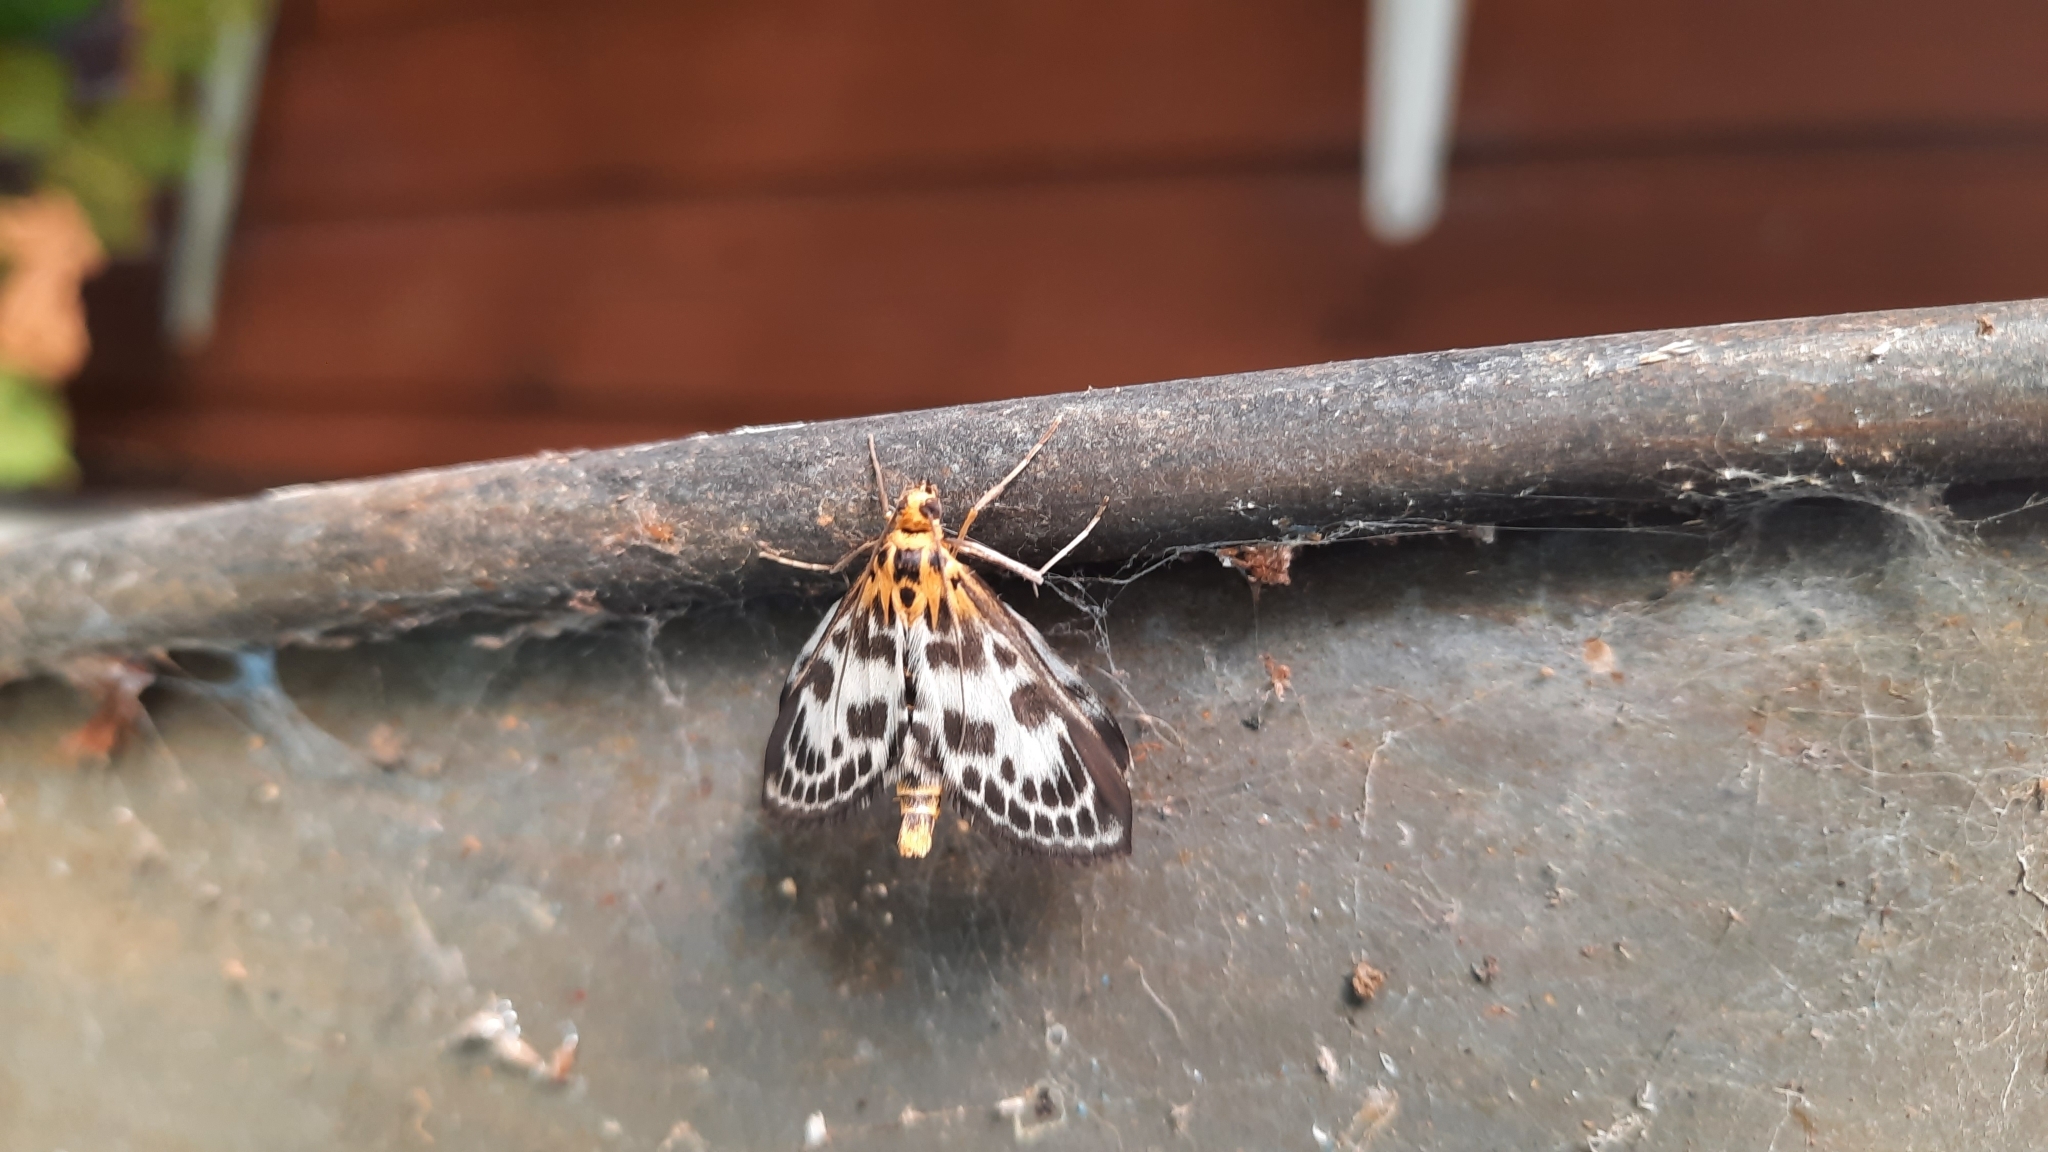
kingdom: Animalia
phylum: Arthropoda
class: Insecta
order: Lepidoptera
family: Crambidae
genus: Anania
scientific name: Anania hortulata
